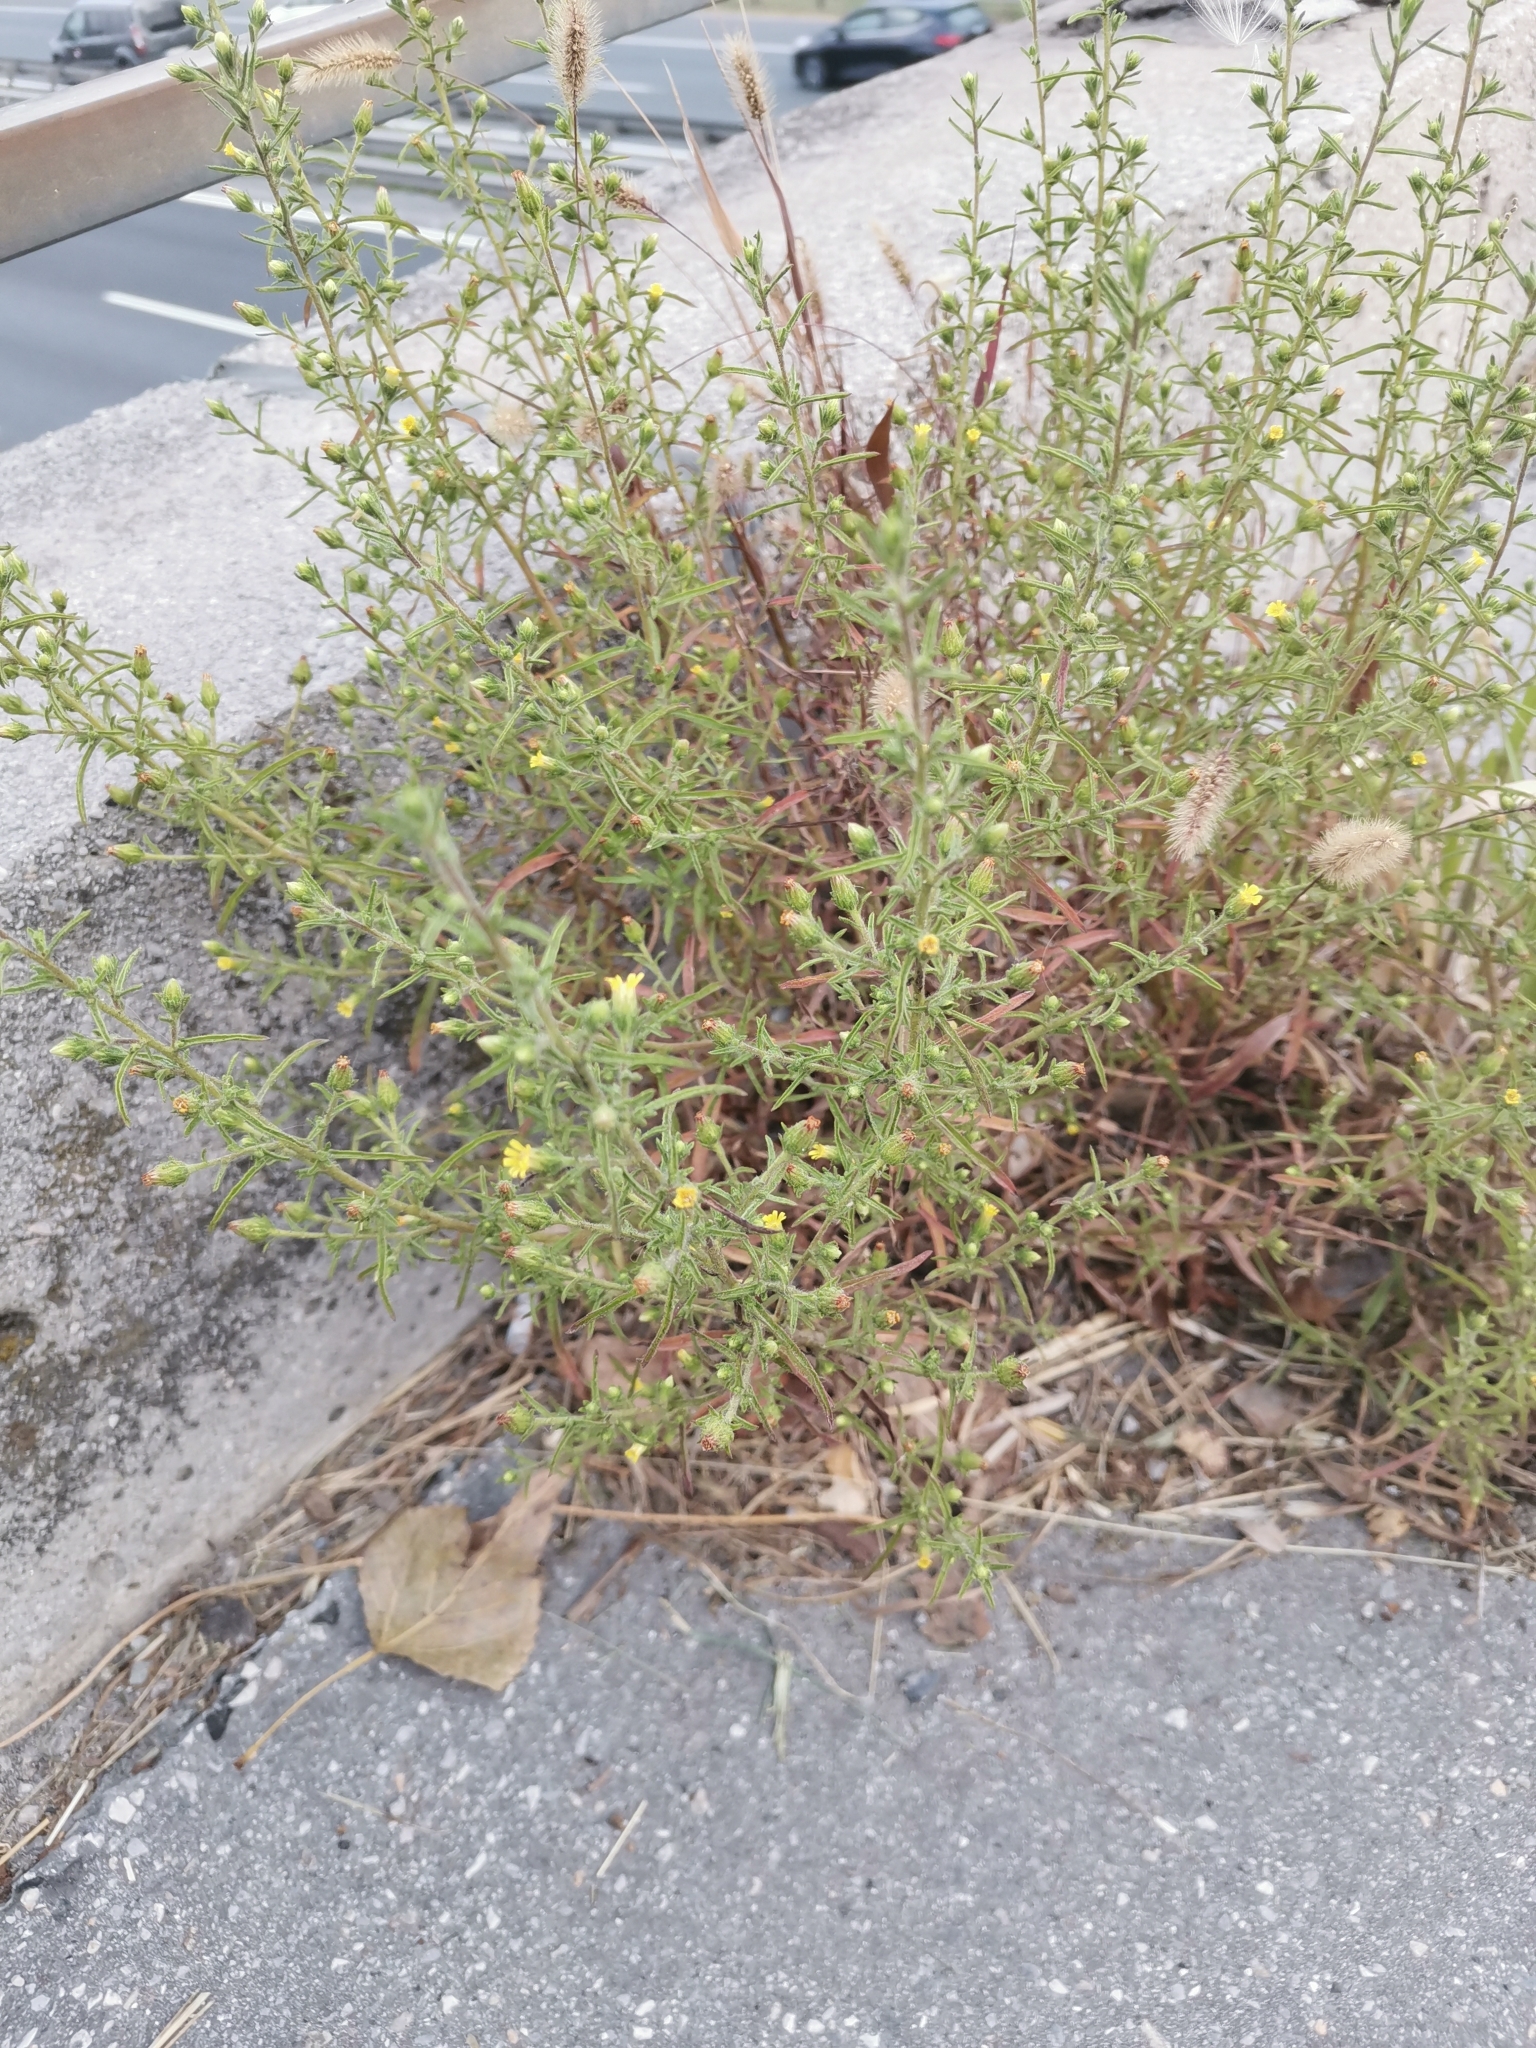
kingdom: Plantae
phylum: Tracheophyta
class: Magnoliopsida
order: Asterales
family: Asteraceae
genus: Dittrichia
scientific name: Dittrichia graveolens
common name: Stinking fleabane
